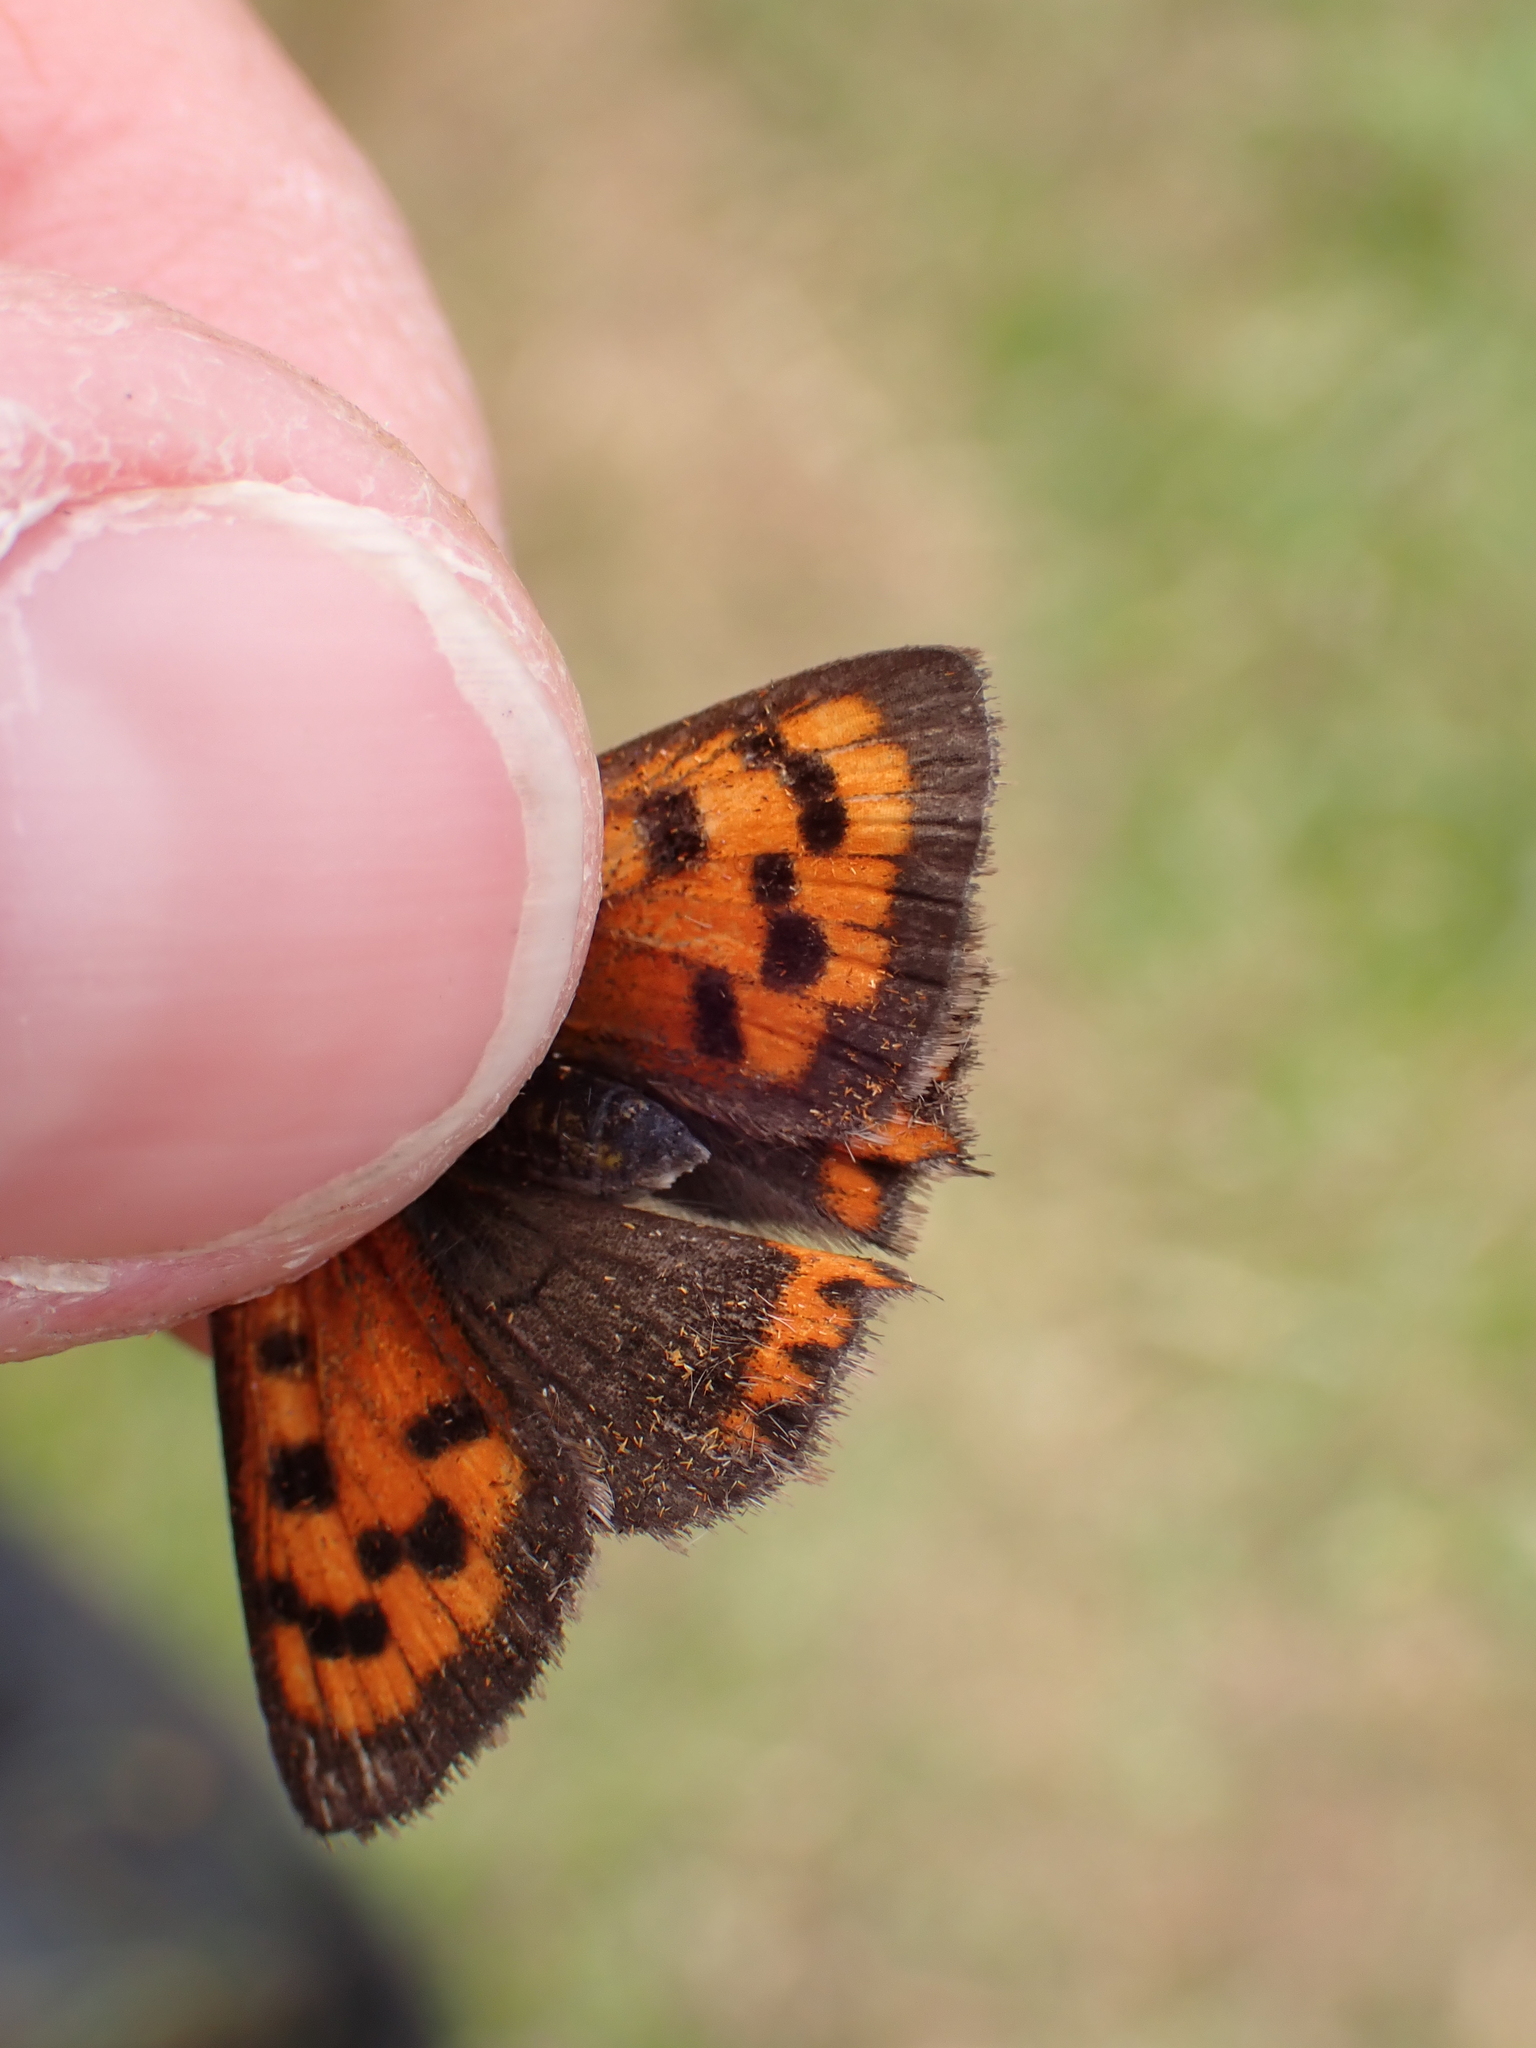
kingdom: Animalia
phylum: Arthropoda
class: Insecta
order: Lepidoptera
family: Lycaenidae
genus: Lycaena
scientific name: Lycaena phlaeas
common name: Small copper
